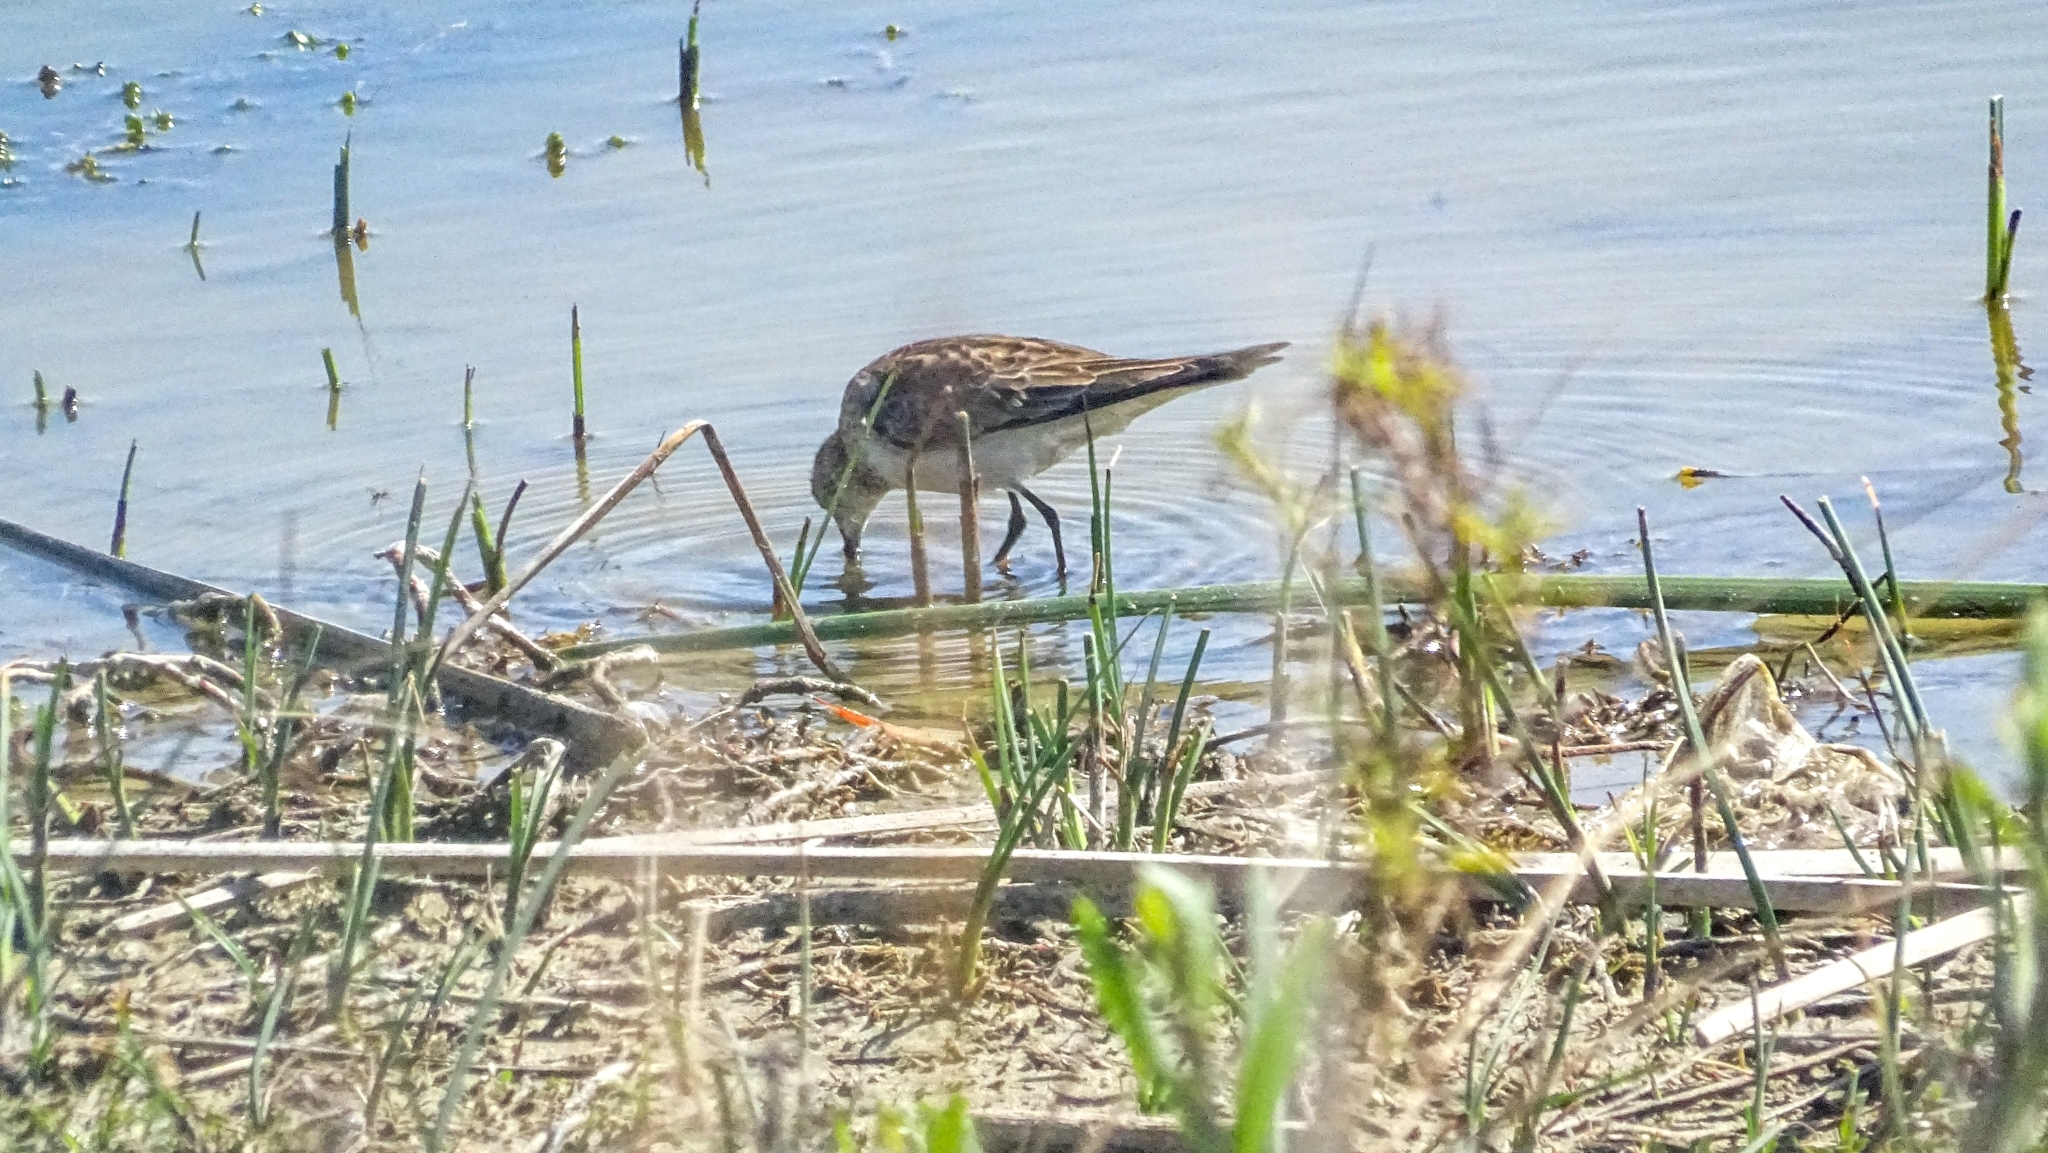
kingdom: Animalia
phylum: Chordata
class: Aves
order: Charadriiformes
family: Scolopacidae
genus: Calidris
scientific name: Calidris bairdii
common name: Baird's sandpiper
